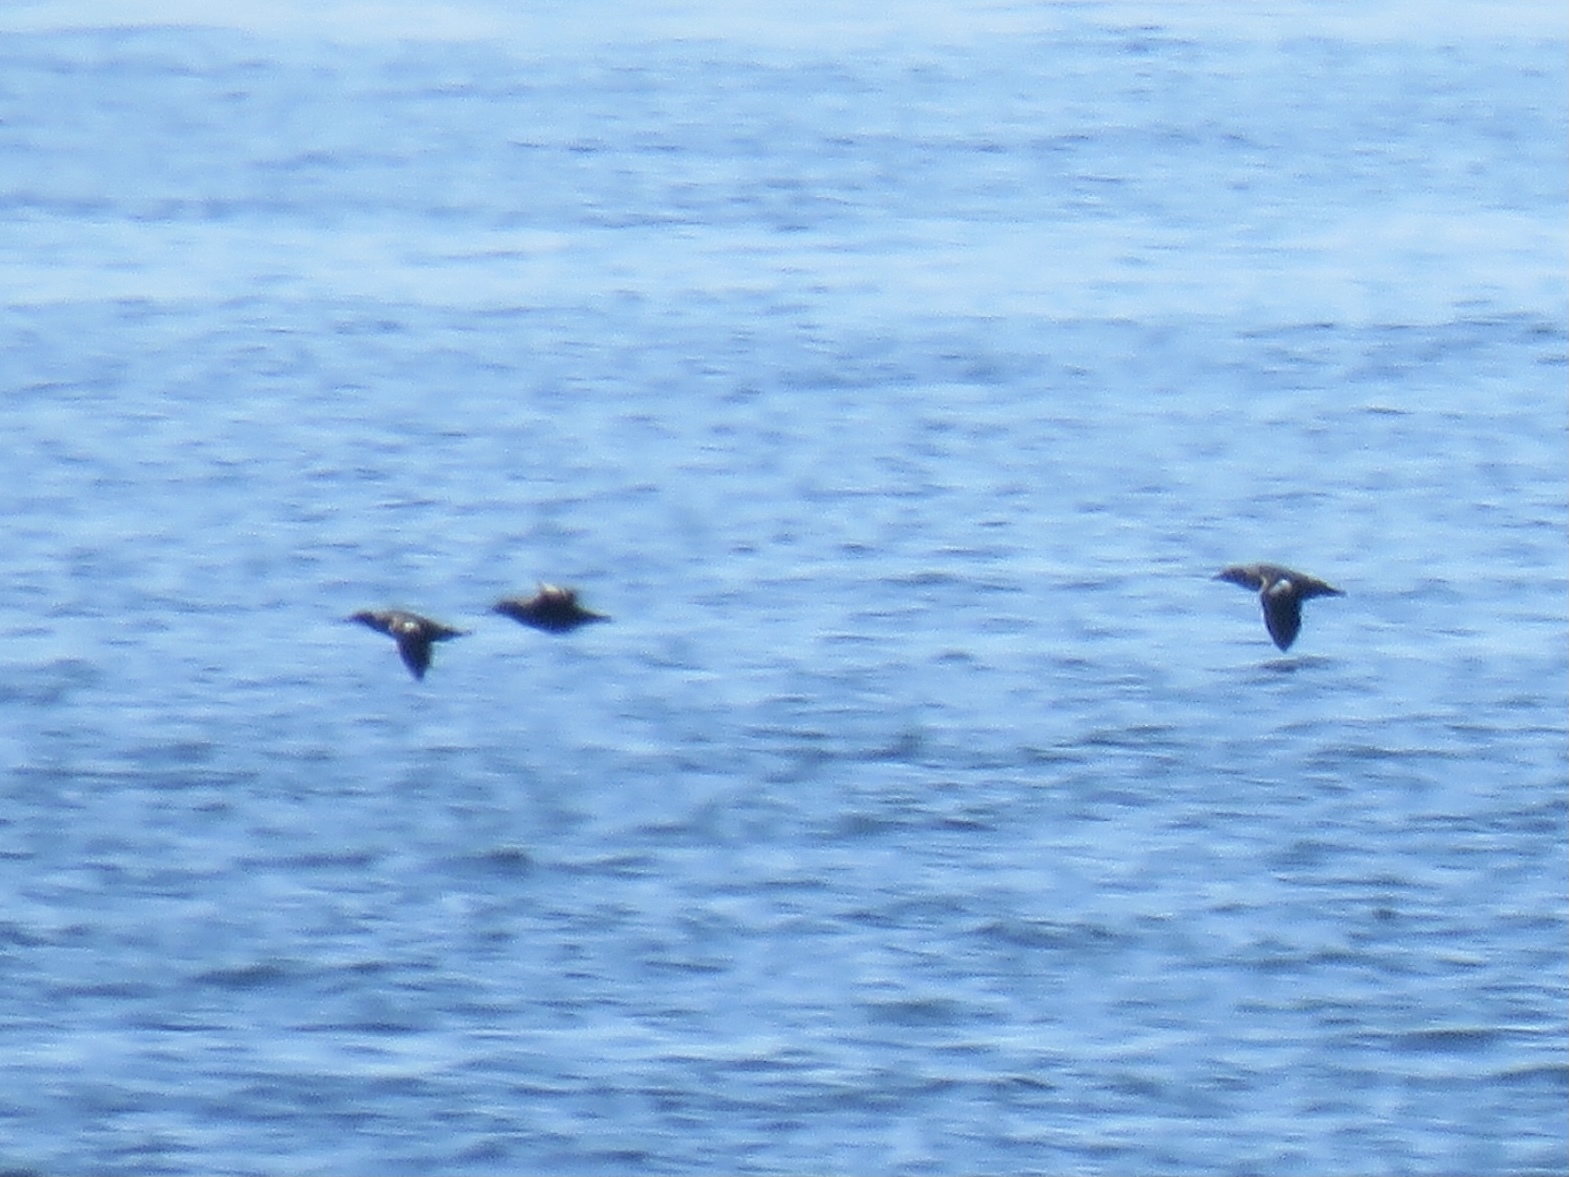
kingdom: Animalia
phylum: Chordata
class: Aves
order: Charadriiformes
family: Alcidae
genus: Cepphus
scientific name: Cepphus columba
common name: Pigeon guillemot
